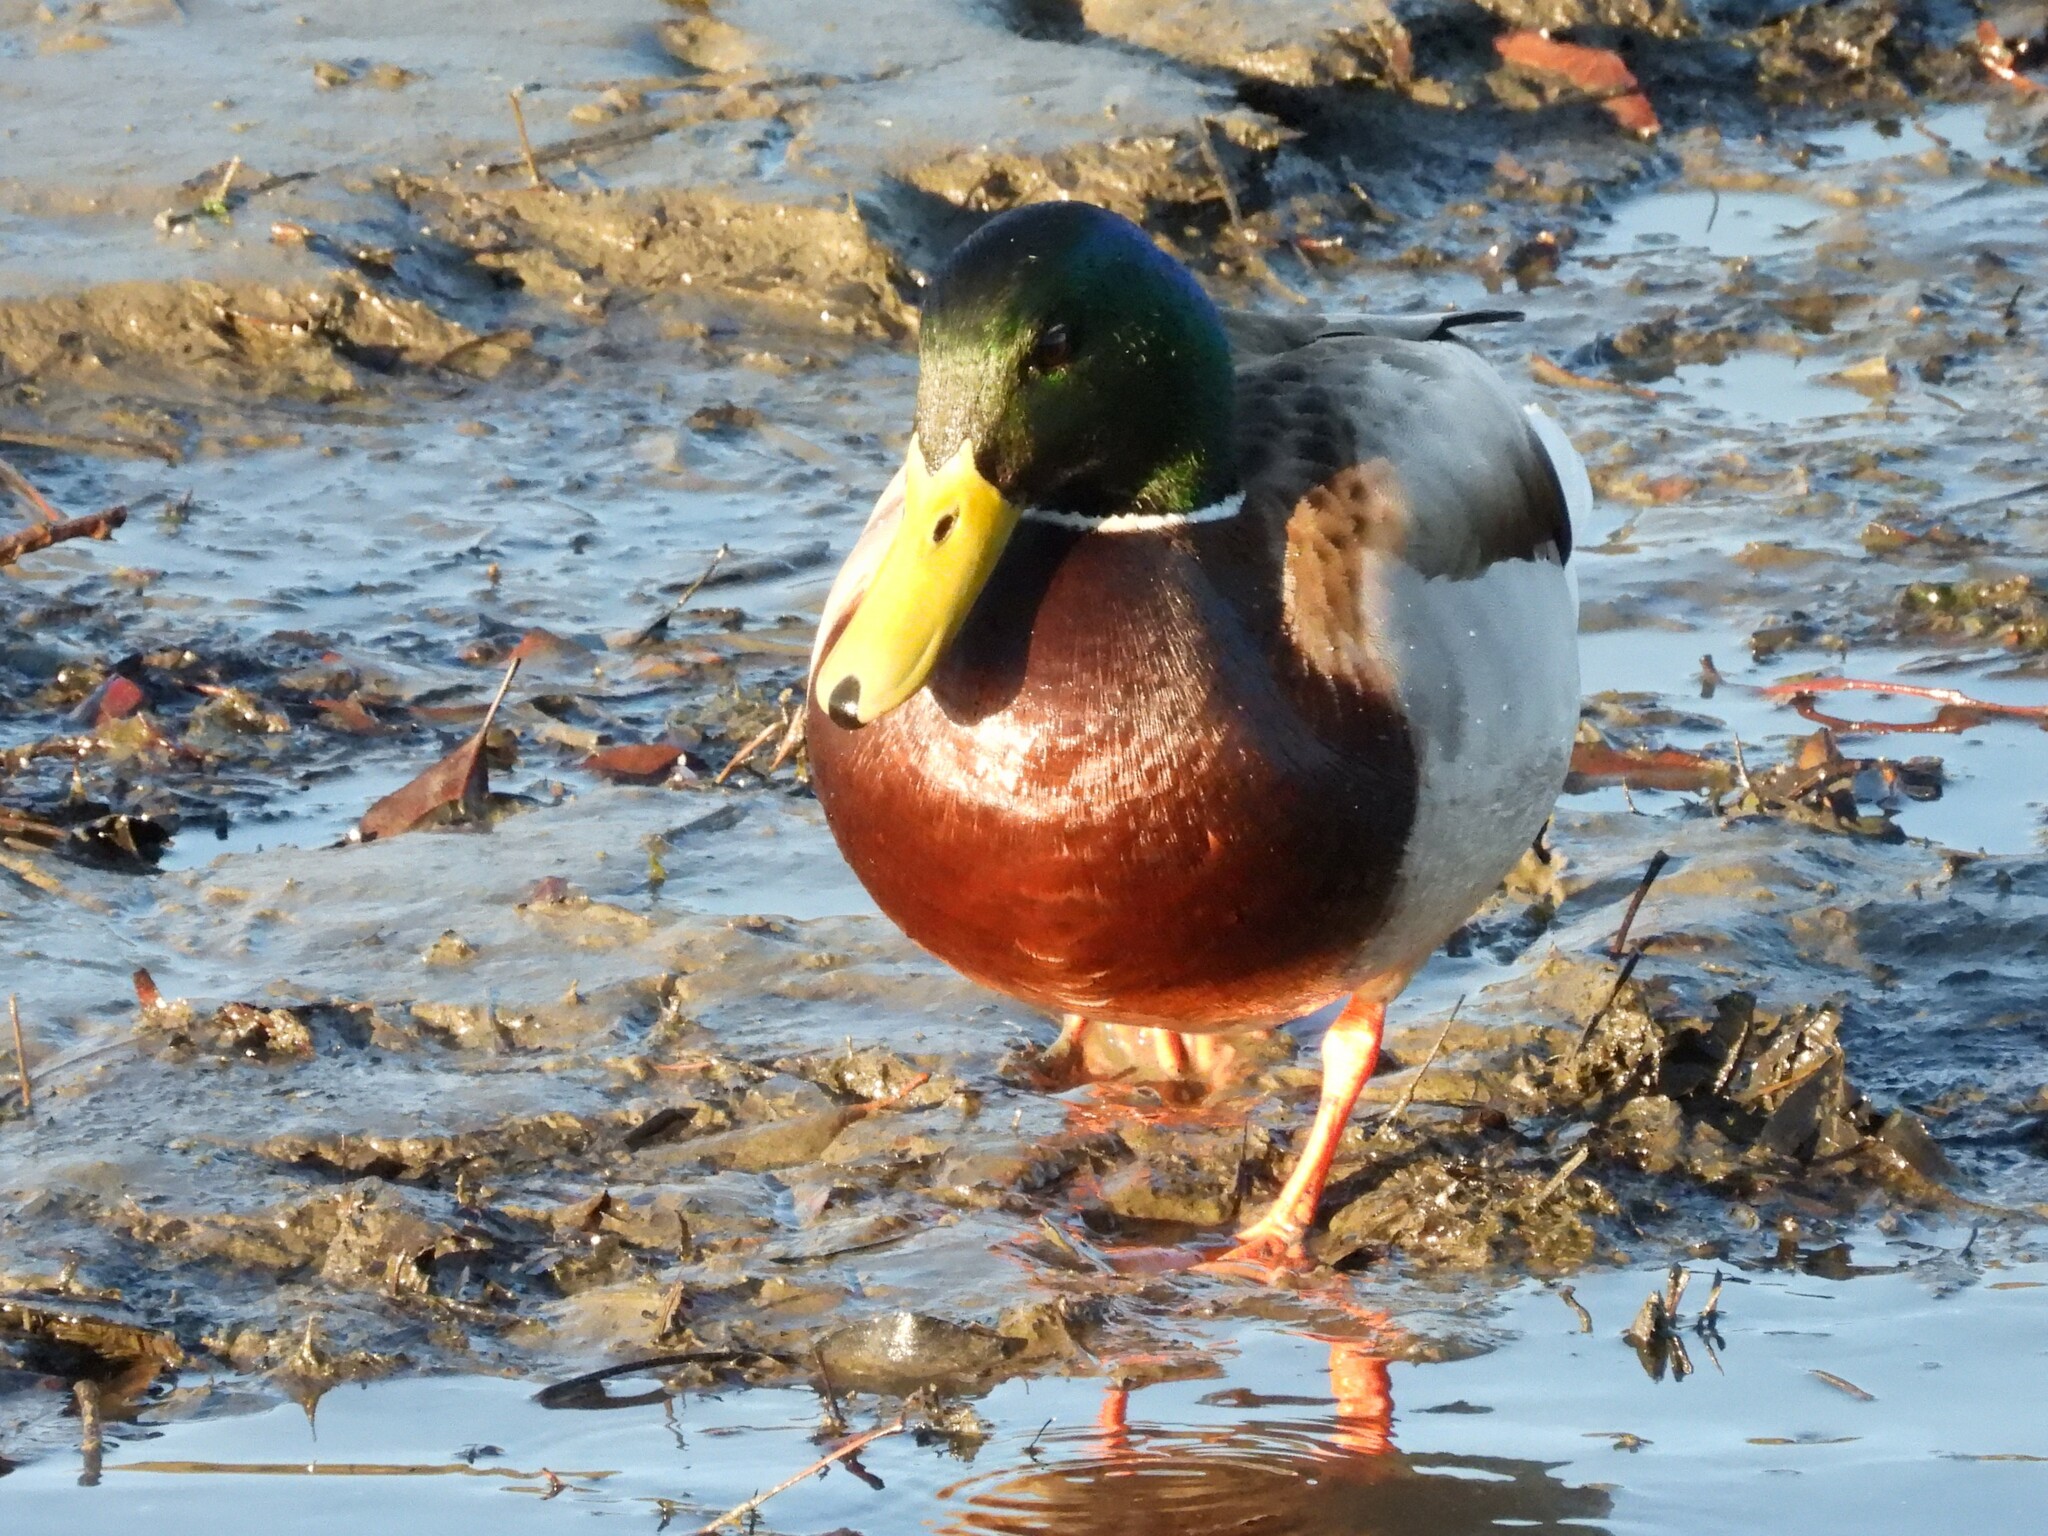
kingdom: Animalia
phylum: Chordata
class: Aves
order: Anseriformes
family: Anatidae
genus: Anas
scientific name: Anas platyrhynchos
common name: Mallard
